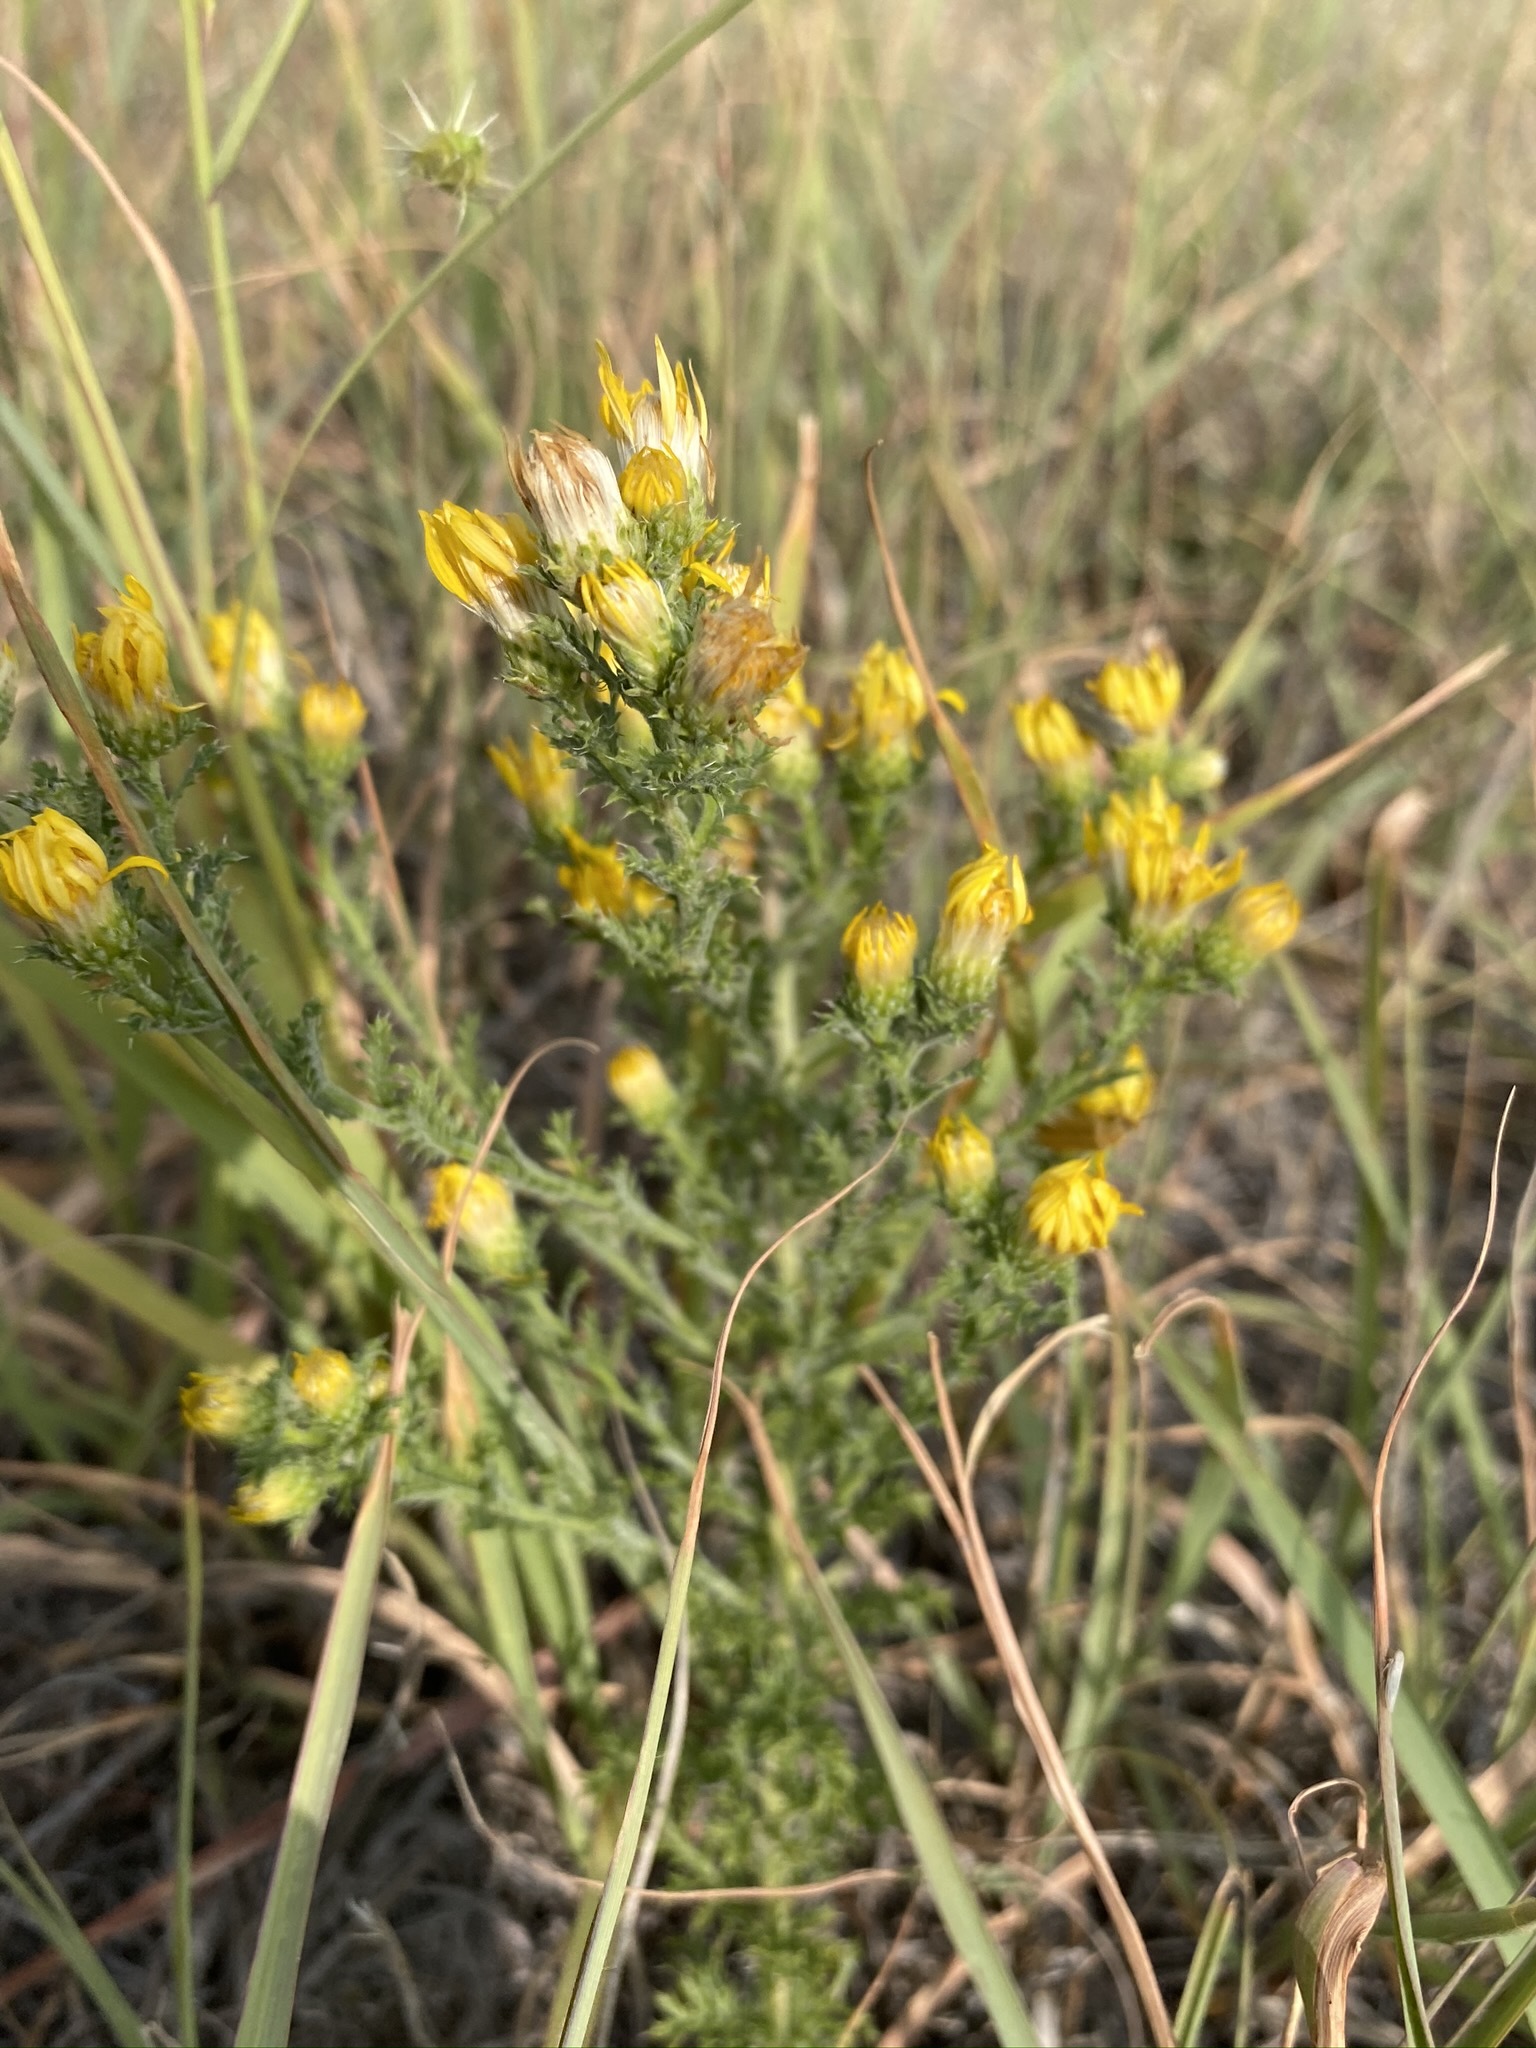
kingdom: Plantae
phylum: Tracheophyta
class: Magnoliopsida
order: Asterales
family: Asteraceae
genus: Xanthisma
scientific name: Xanthisma spinulosum
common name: Spiny goldenweed
